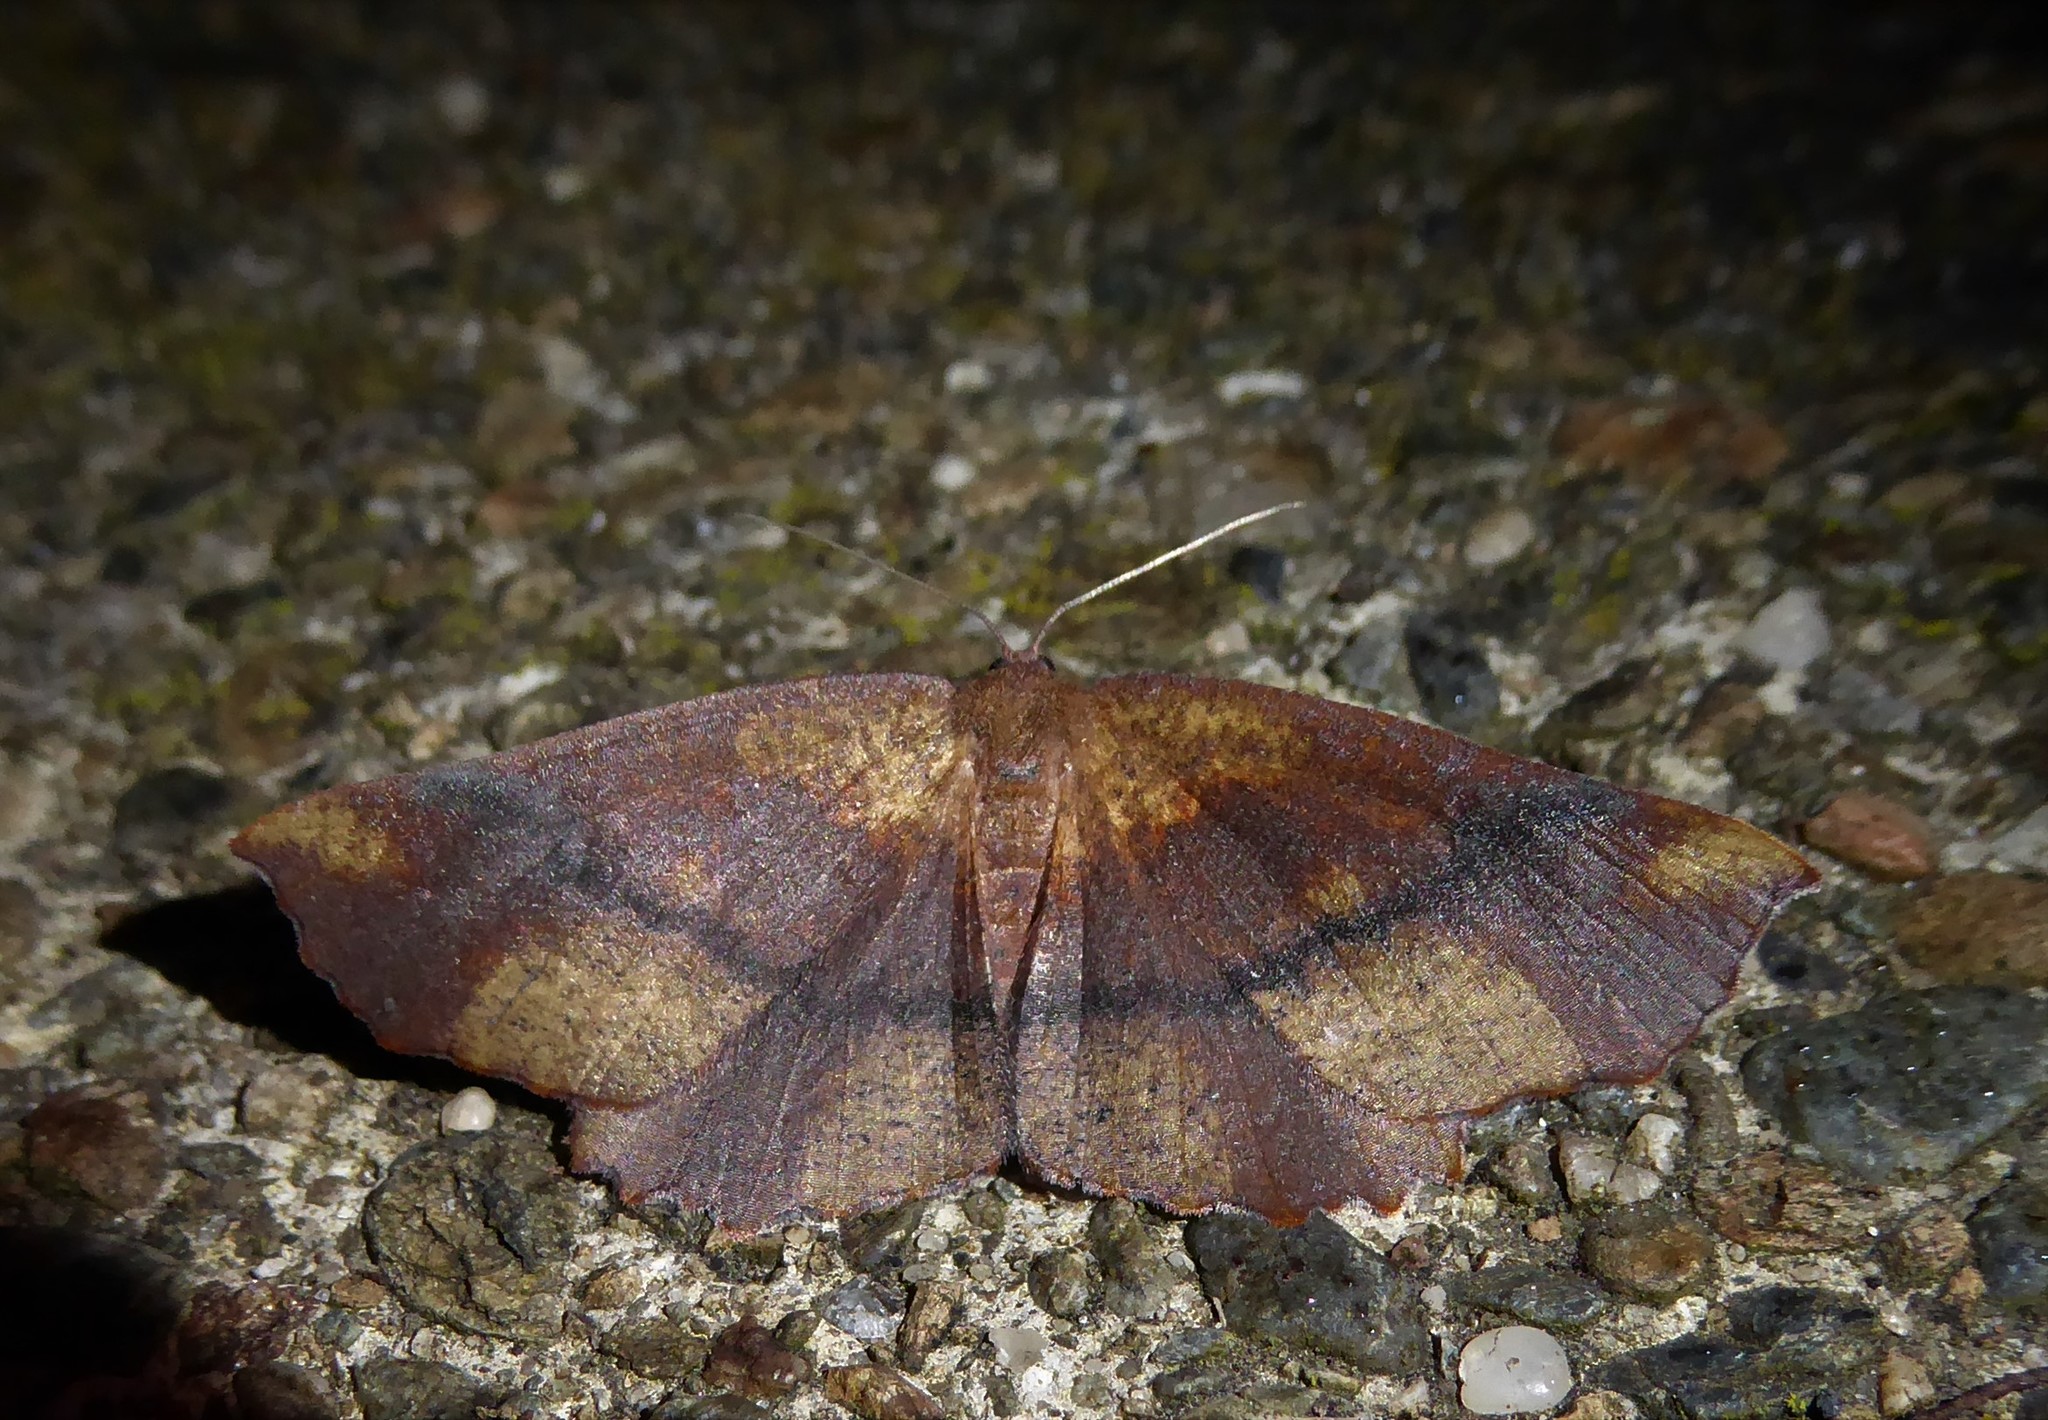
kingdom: Animalia
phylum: Arthropoda
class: Insecta
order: Lepidoptera
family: Geometridae
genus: Xyridacma
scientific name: Xyridacma ustaria
